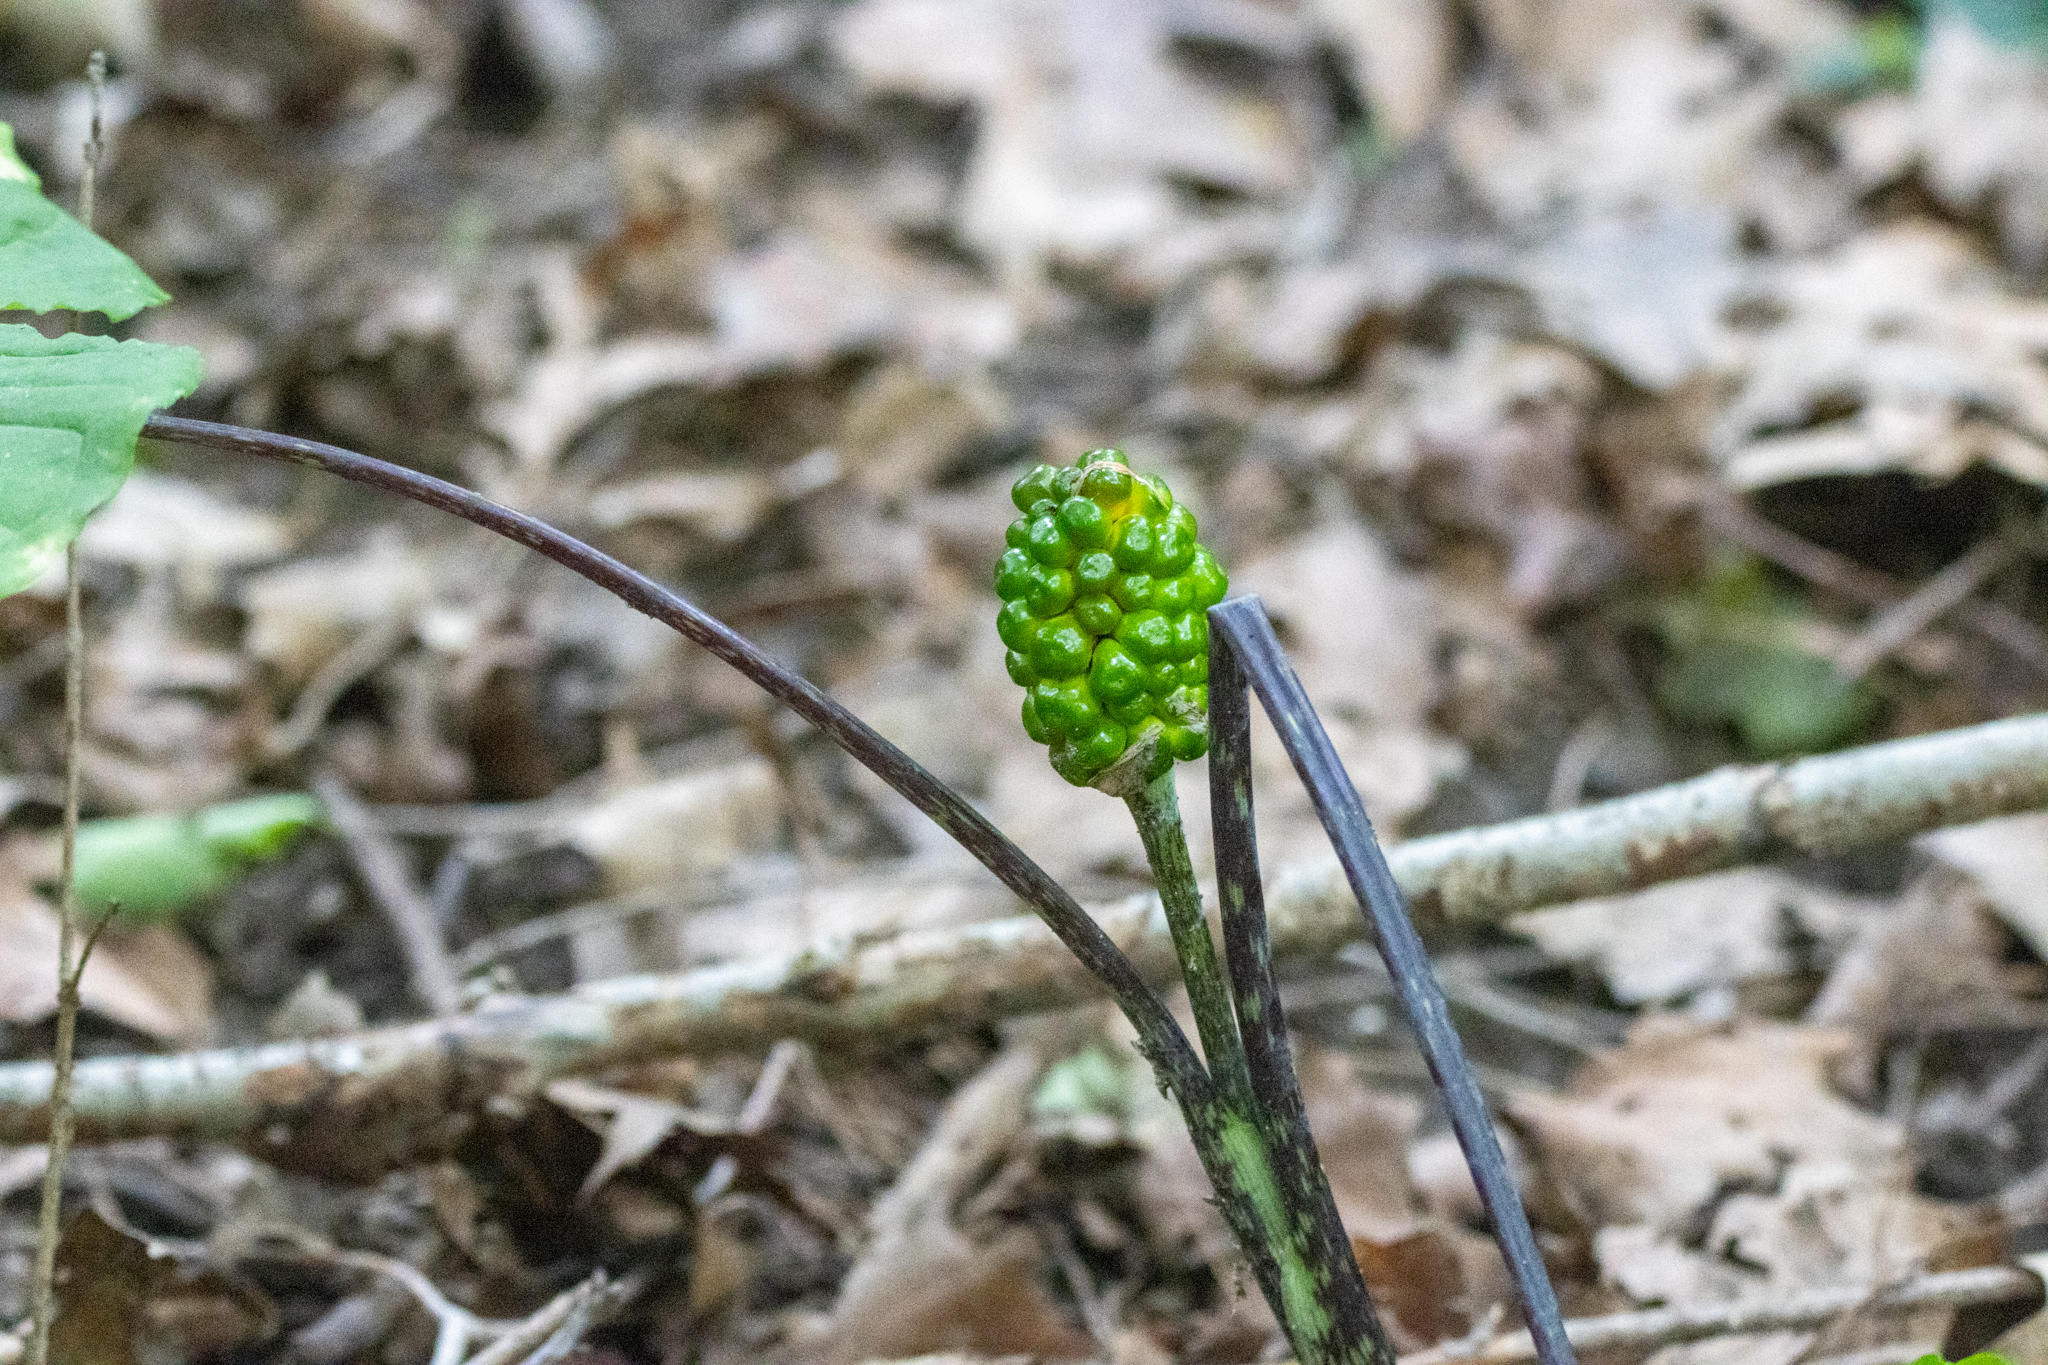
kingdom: Plantae
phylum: Tracheophyta
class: Liliopsida
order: Alismatales
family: Araceae
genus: Arisaema
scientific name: Arisaema triphyllum
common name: Jack-in-the-pulpit
